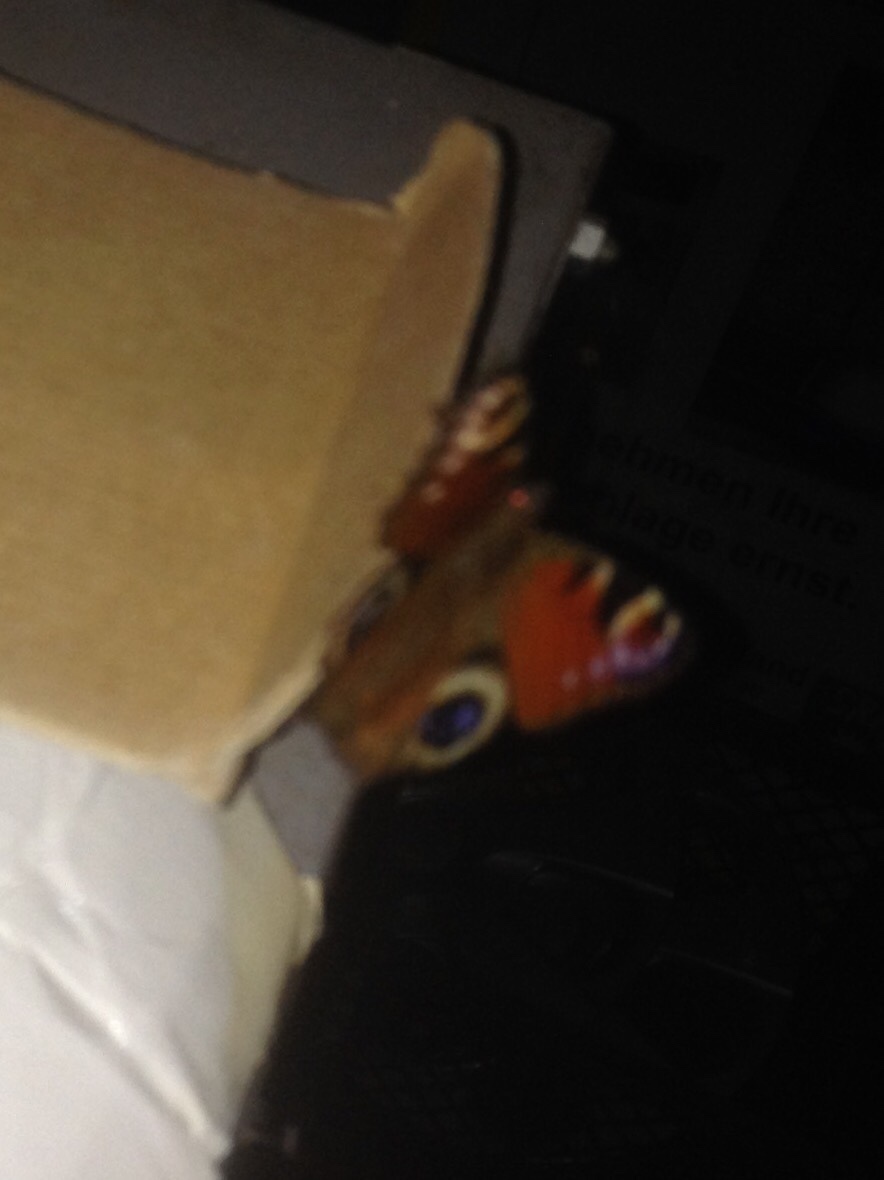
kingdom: Animalia
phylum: Arthropoda
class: Insecta
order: Lepidoptera
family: Nymphalidae
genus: Aglais
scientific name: Aglais io
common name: Peacock
